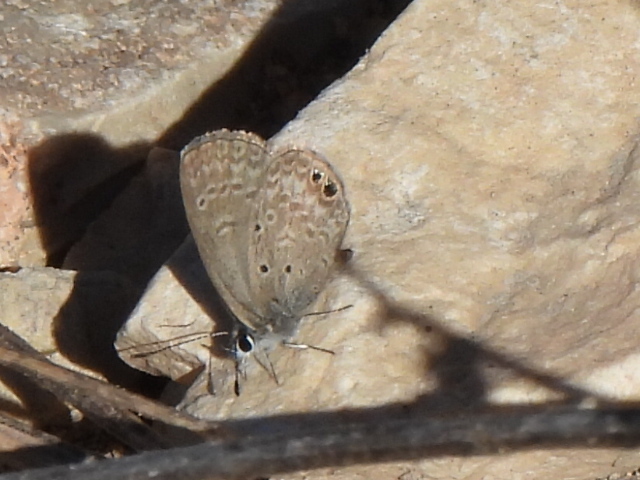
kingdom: Animalia
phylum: Arthropoda
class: Insecta
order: Lepidoptera
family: Lycaenidae
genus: Hemiargus
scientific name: Hemiargus ceraunus
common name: Ceraunus blue
